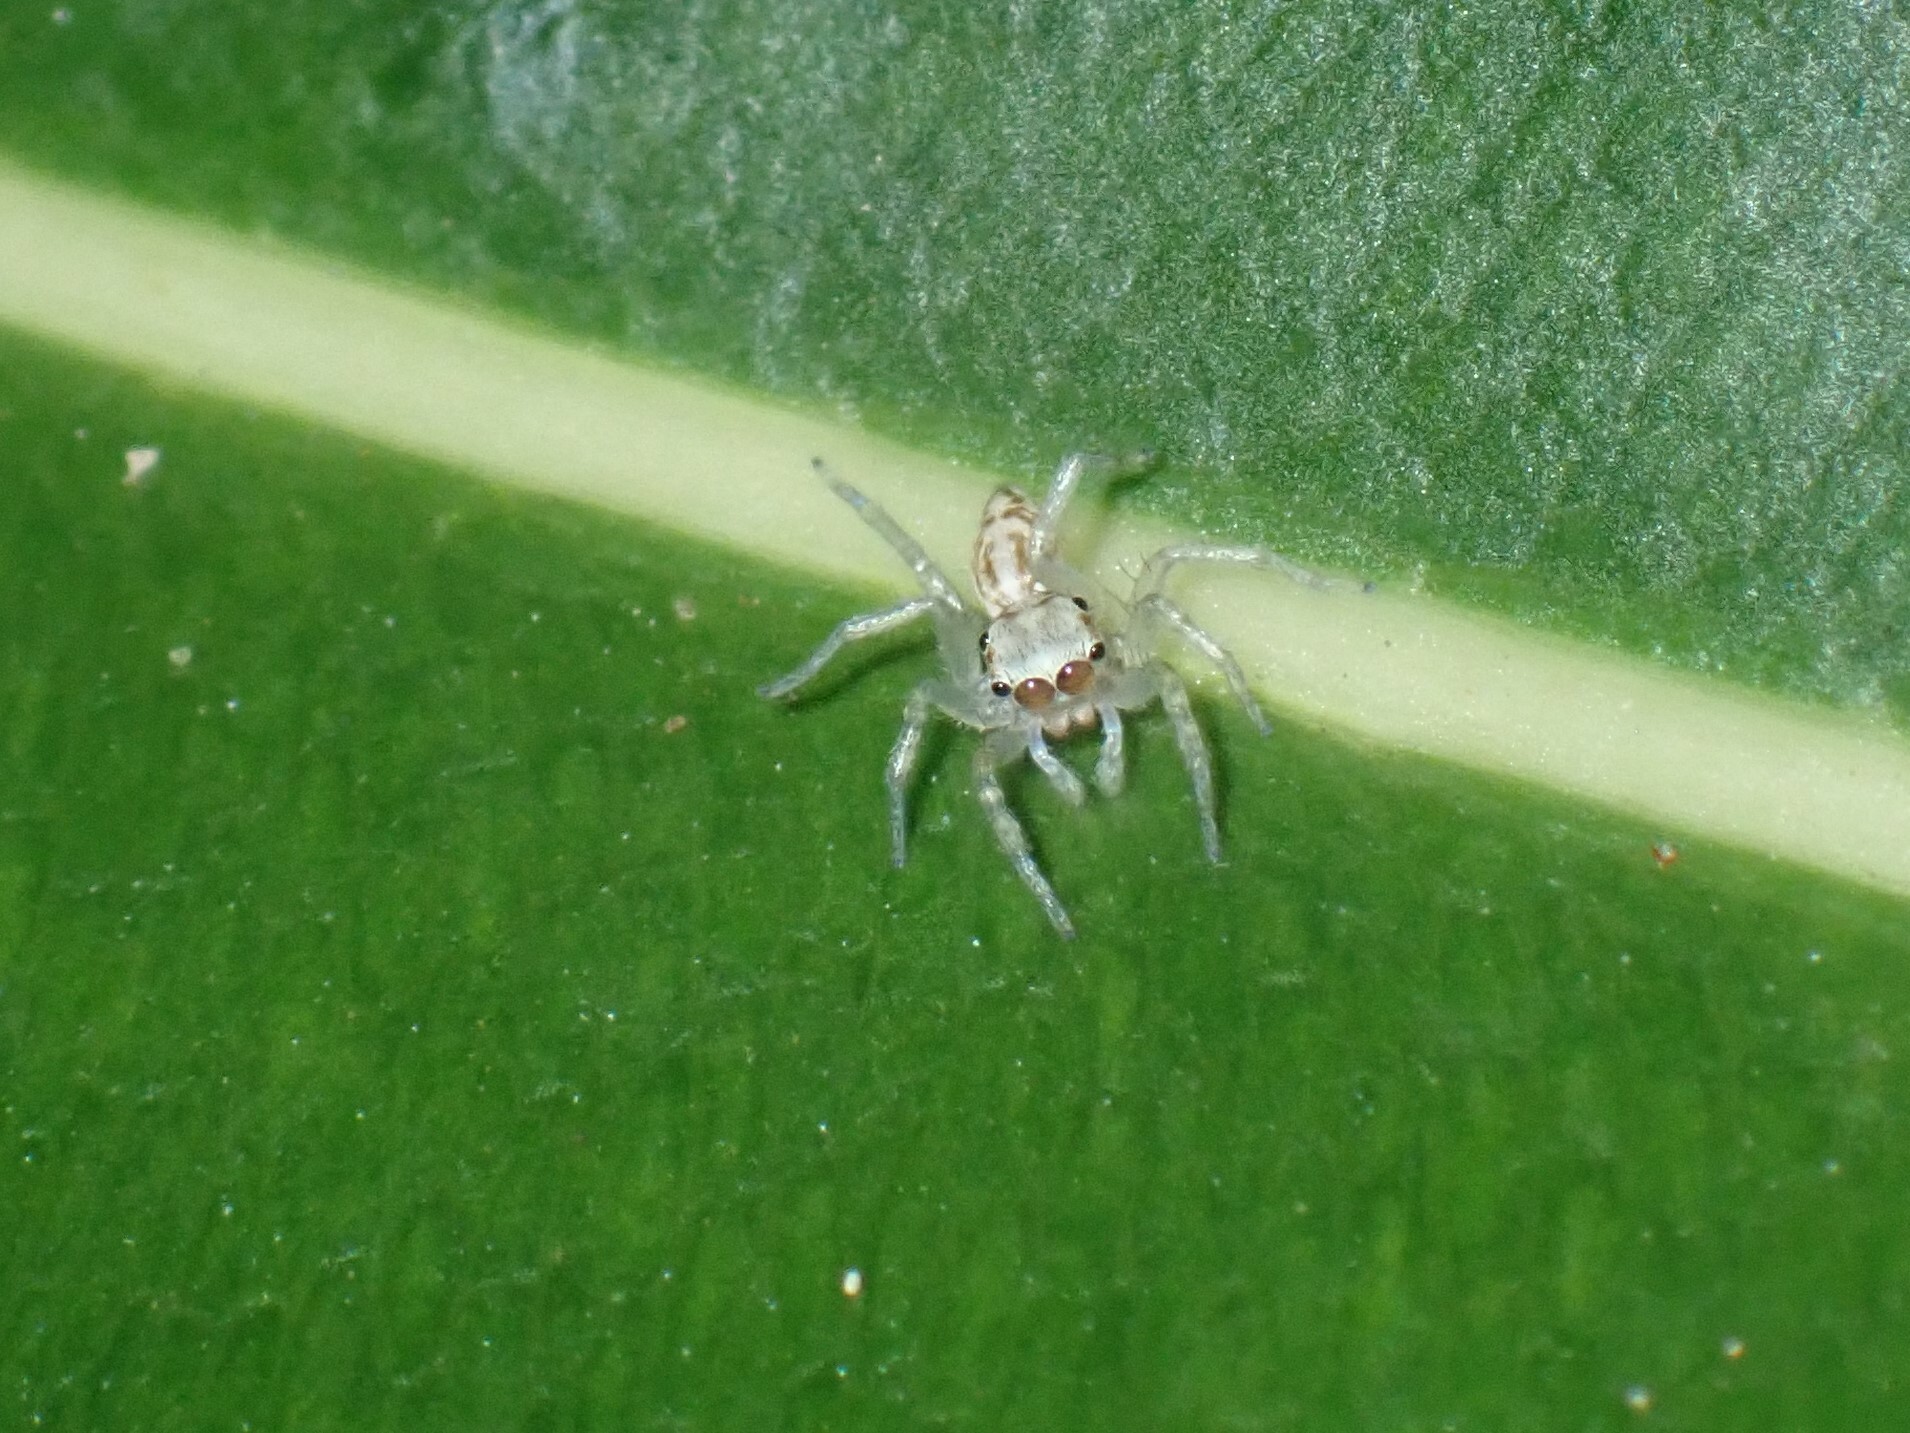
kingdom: Animalia
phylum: Arthropoda
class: Arachnida
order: Araneae
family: Salticidae
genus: Phintelloides
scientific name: Phintelloides versicolor
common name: Jumping spider
